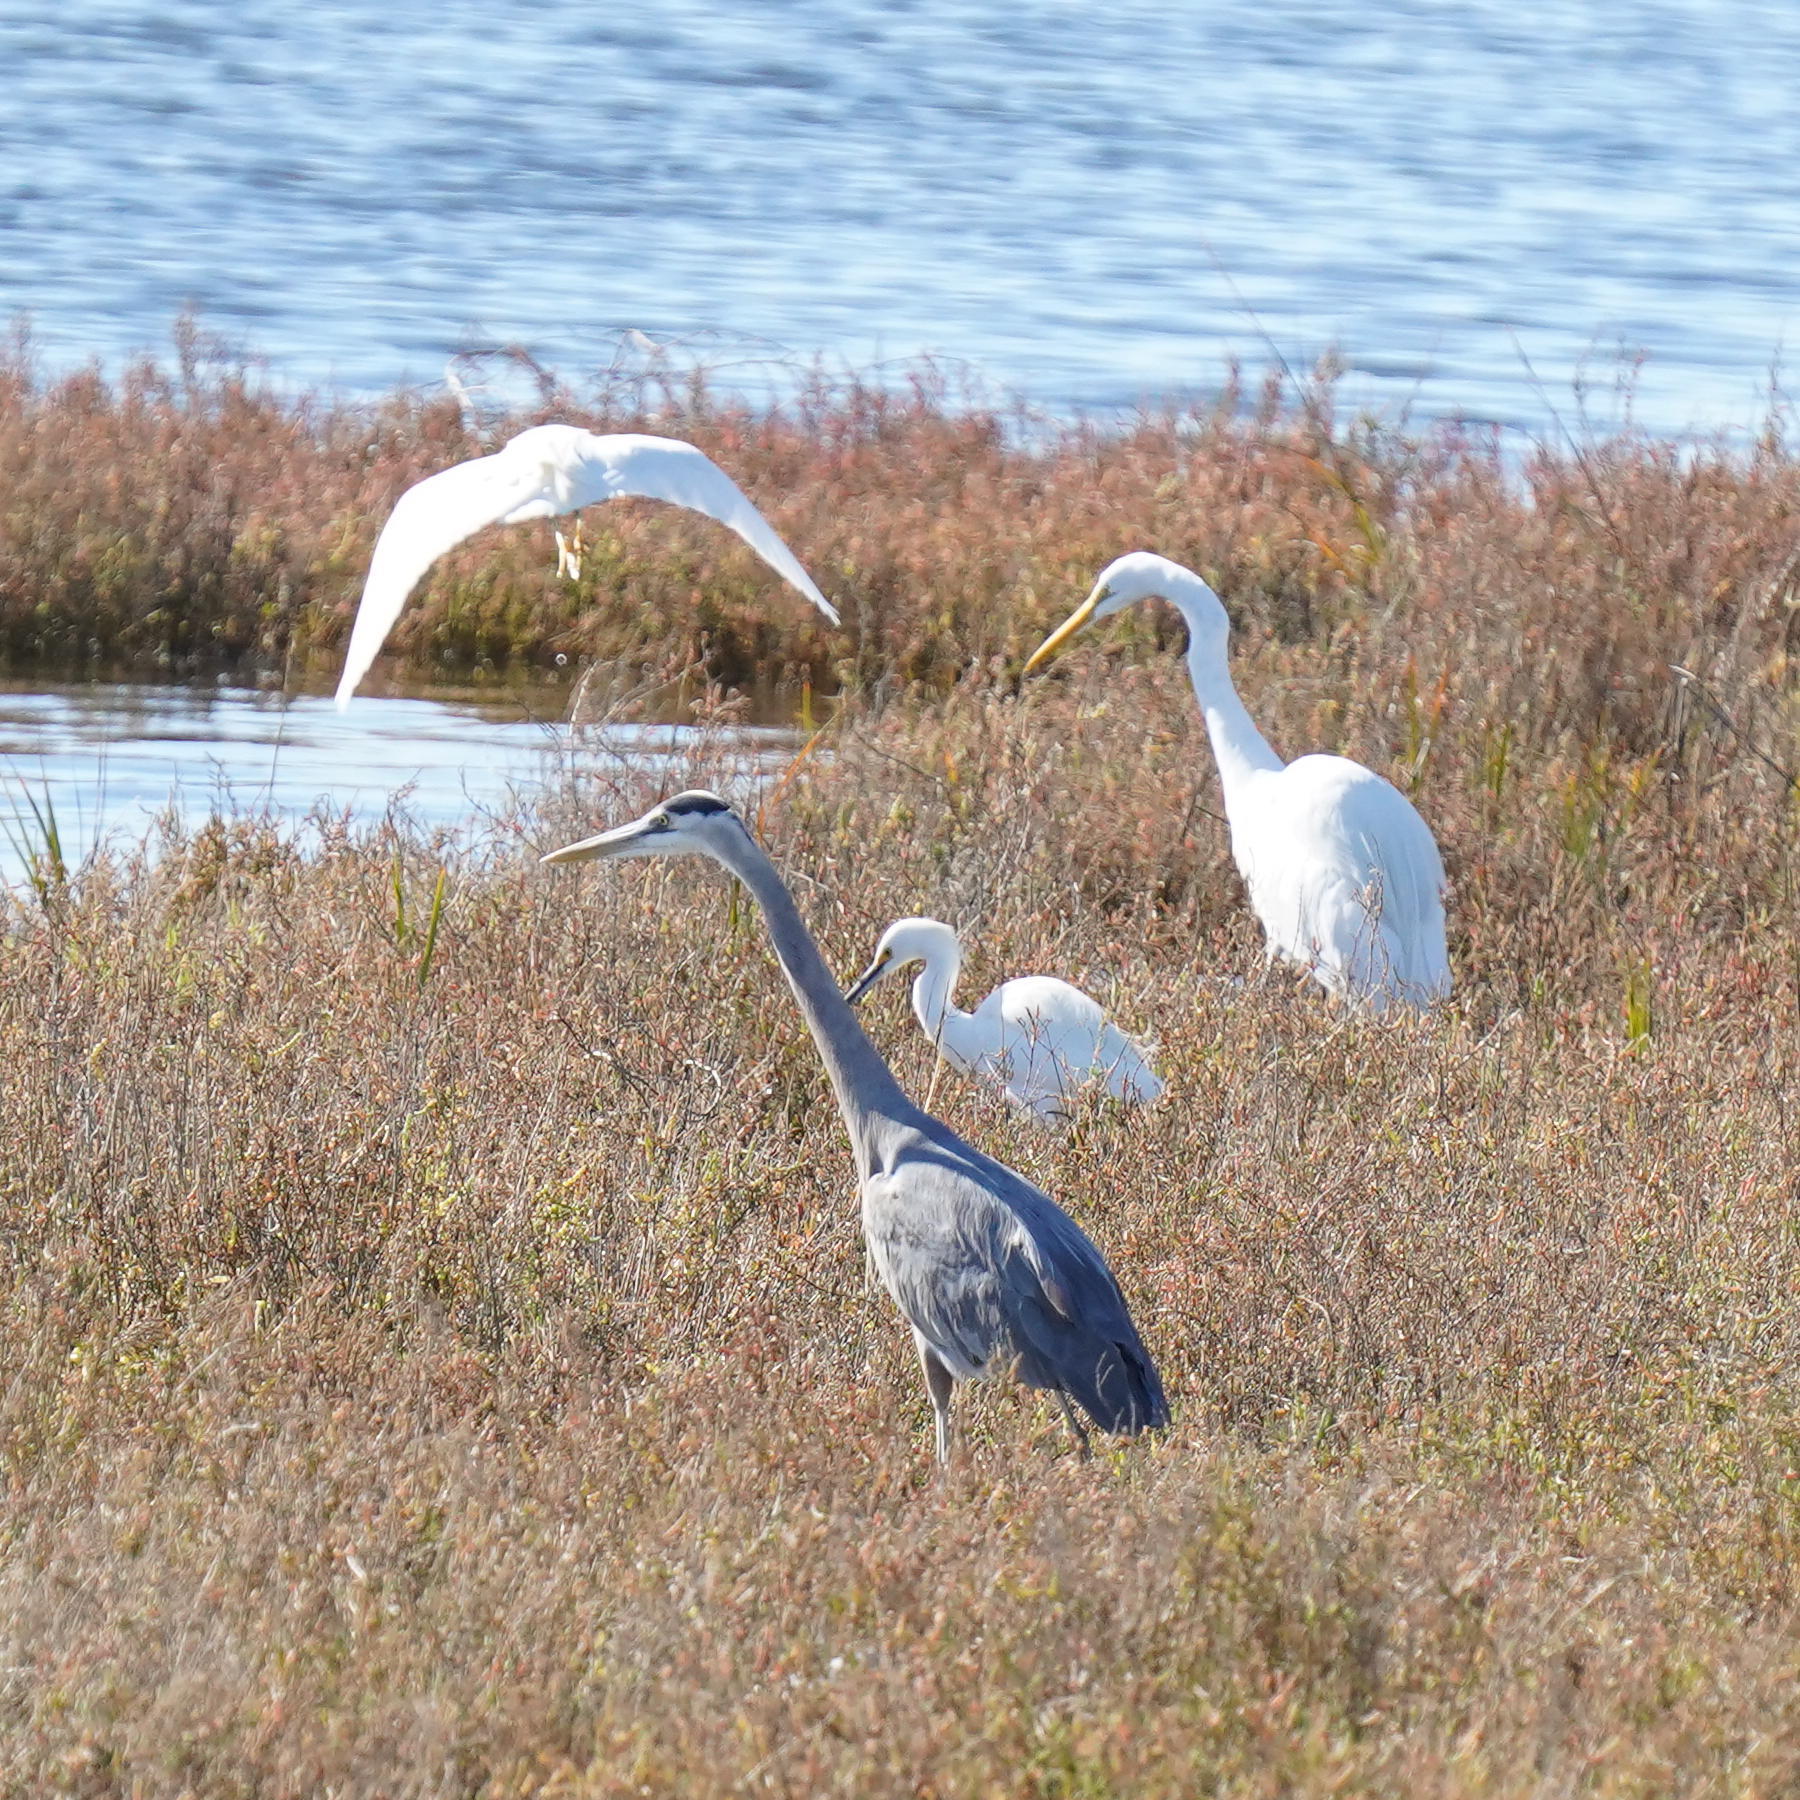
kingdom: Animalia
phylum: Chordata
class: Aves
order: Pelecaniformes
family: Ardeidae
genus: Egretta
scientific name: Egretta thula
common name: Snowy egret
